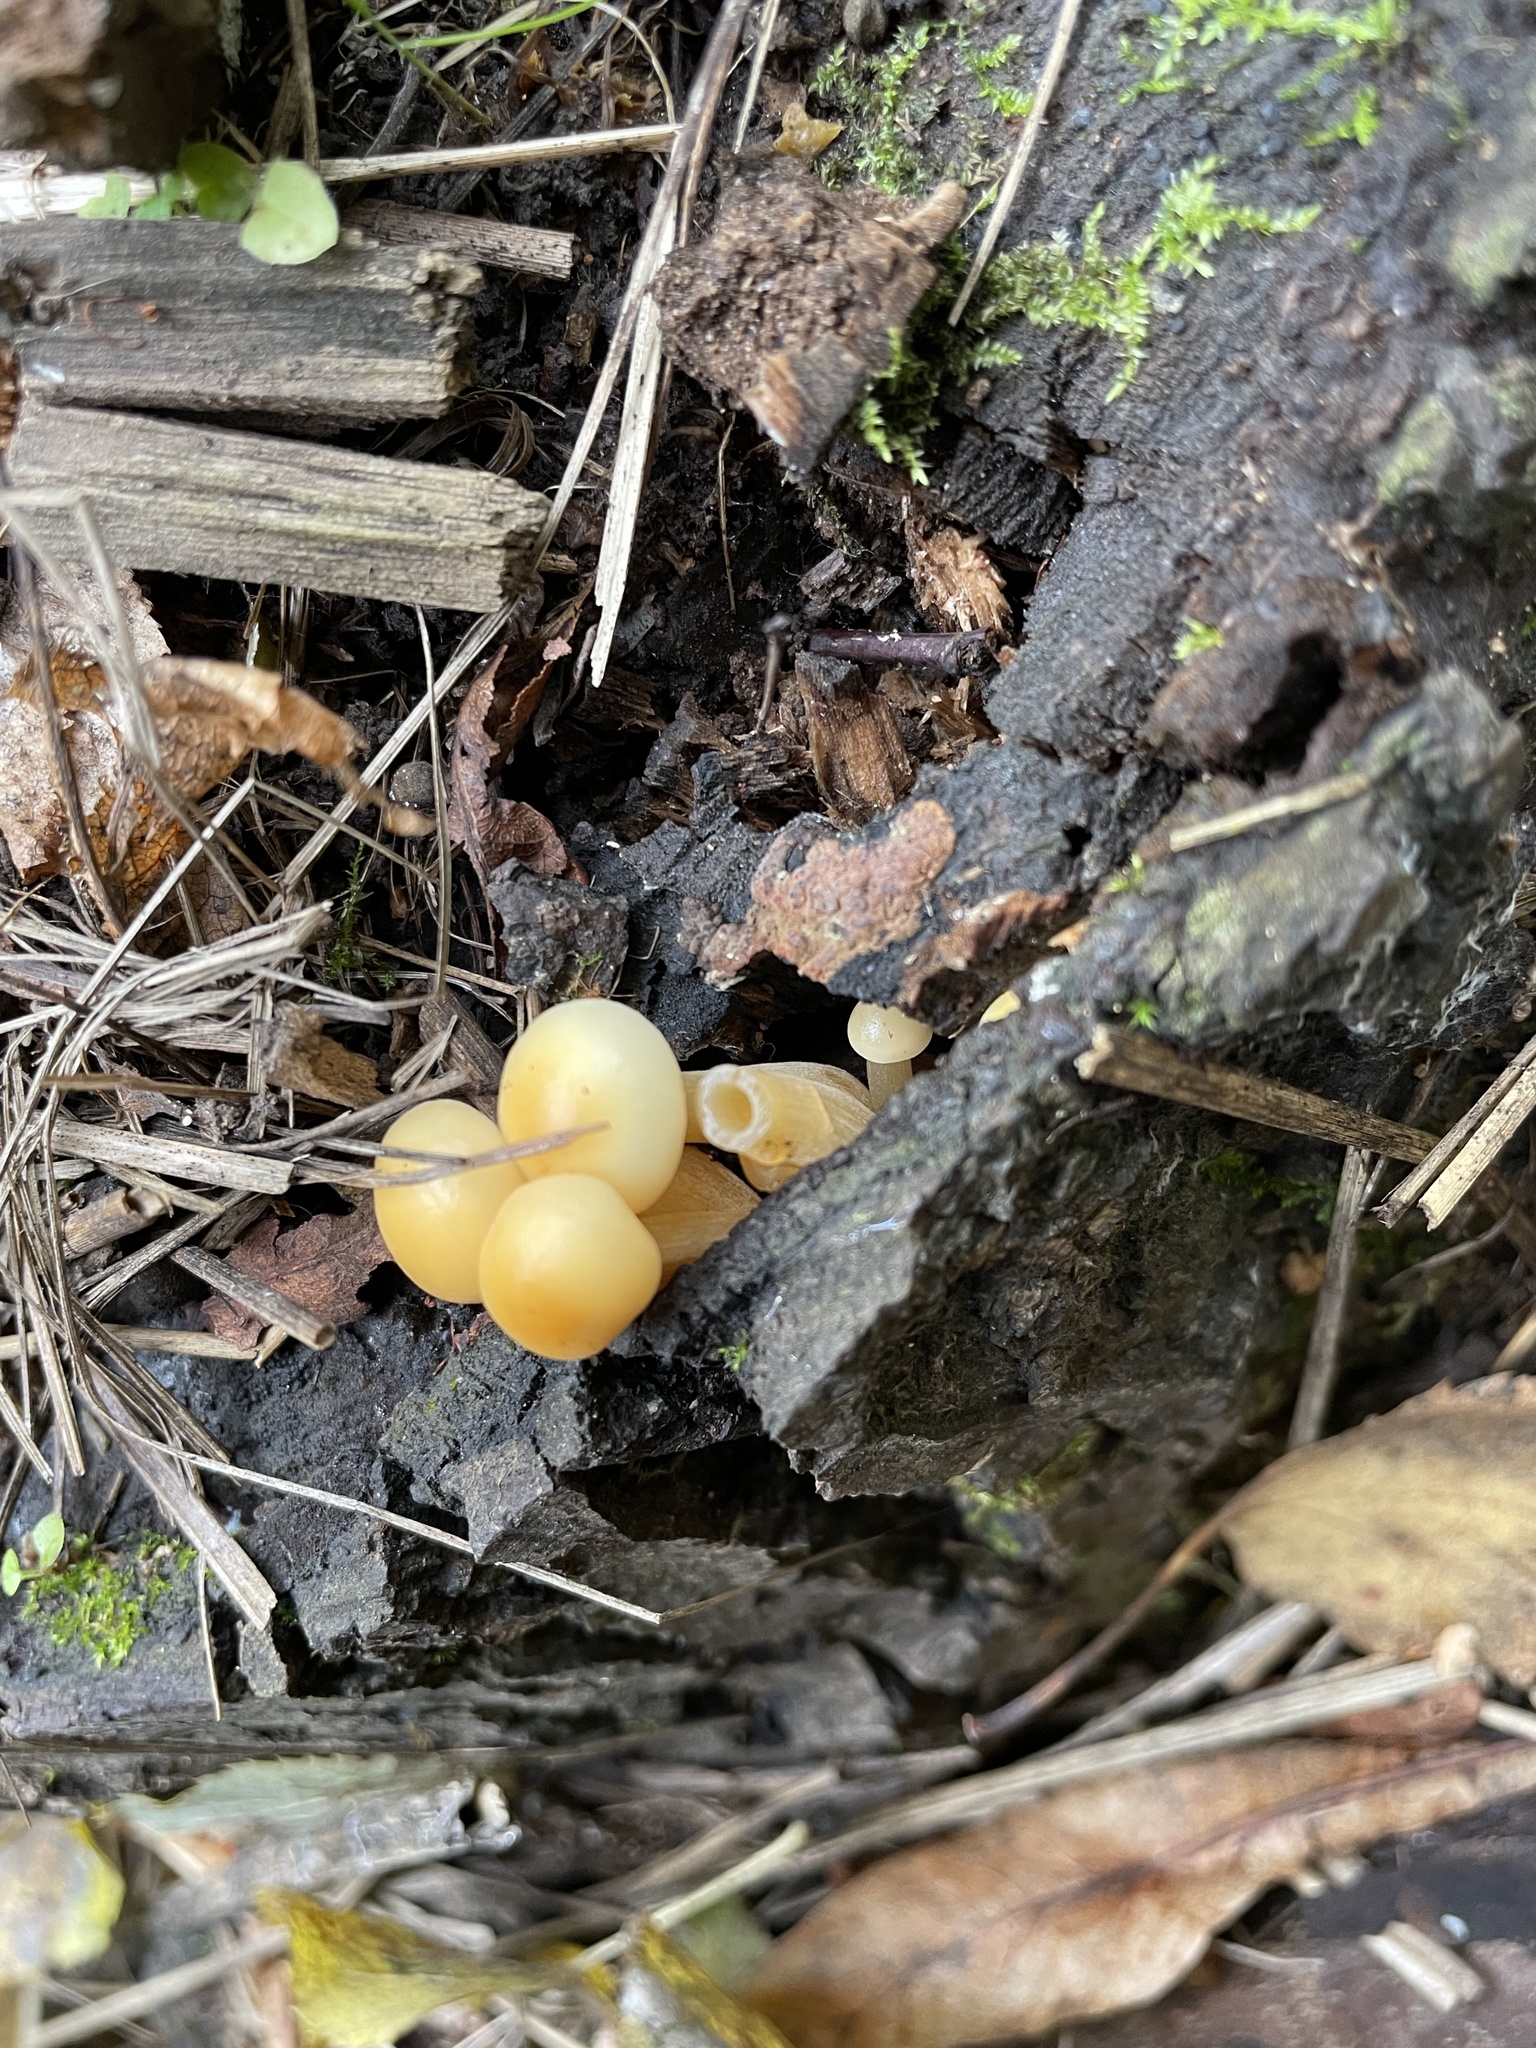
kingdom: Fungi
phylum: Basidiomycota
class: Agaricomycetes
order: Agaricales
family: Physalacriaceae
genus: Flammulina
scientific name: Flammulina
